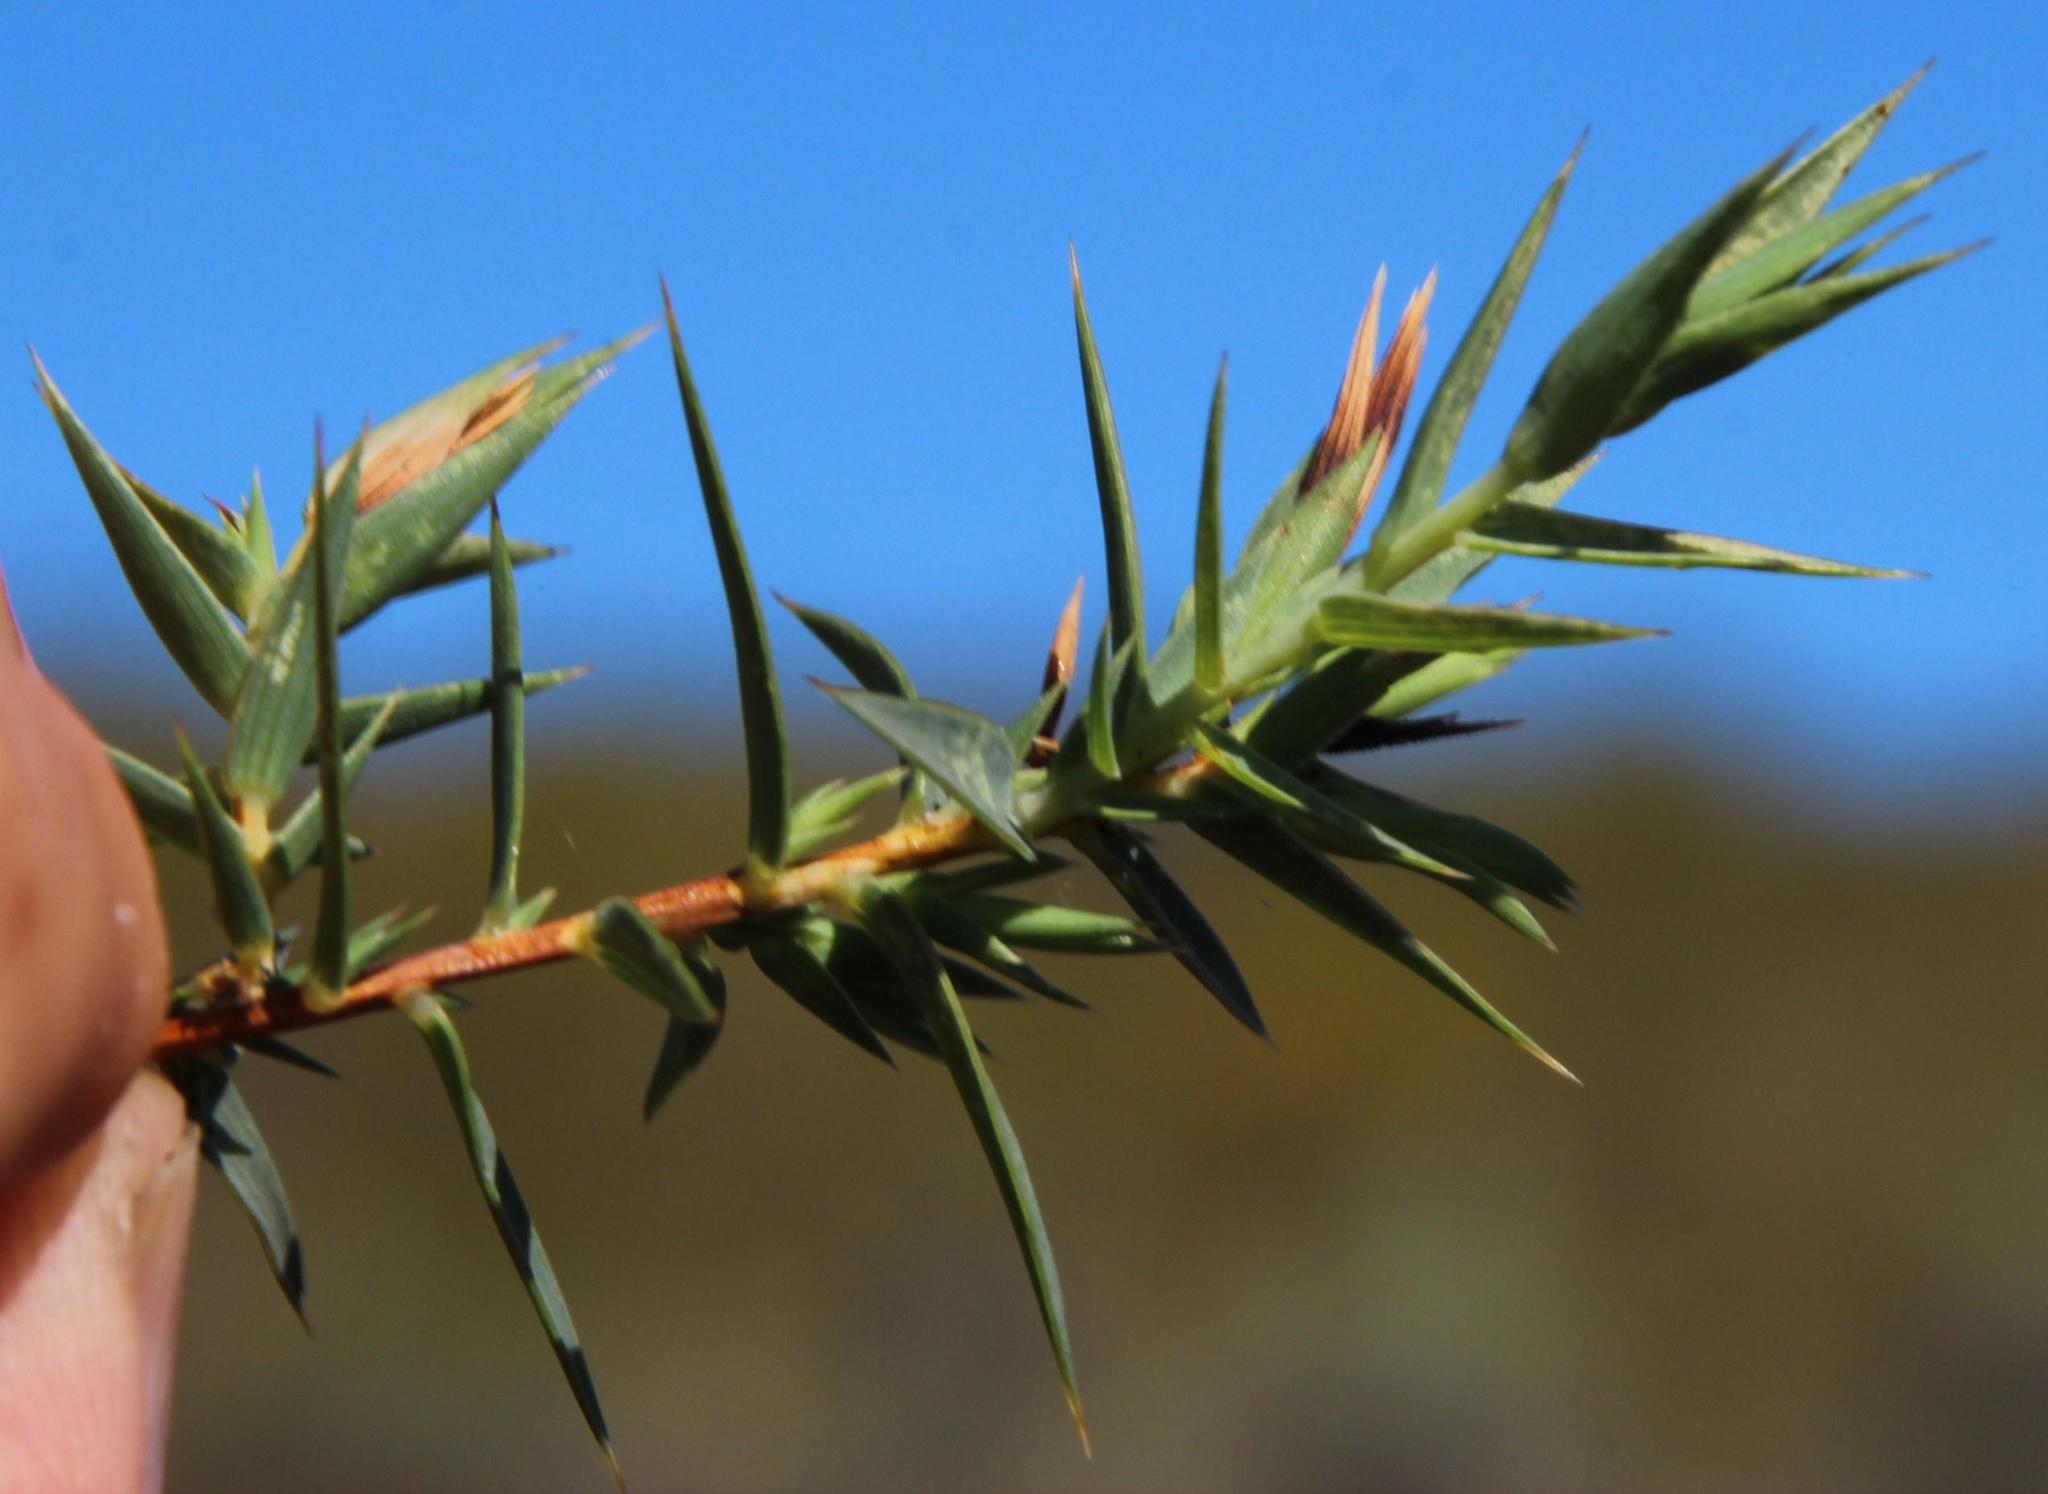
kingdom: Plantae
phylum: Tracheophyta
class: Magnoliopsida
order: Fabales
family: Fabaceae
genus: Aspalathus
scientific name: Aspalathus alpestris
